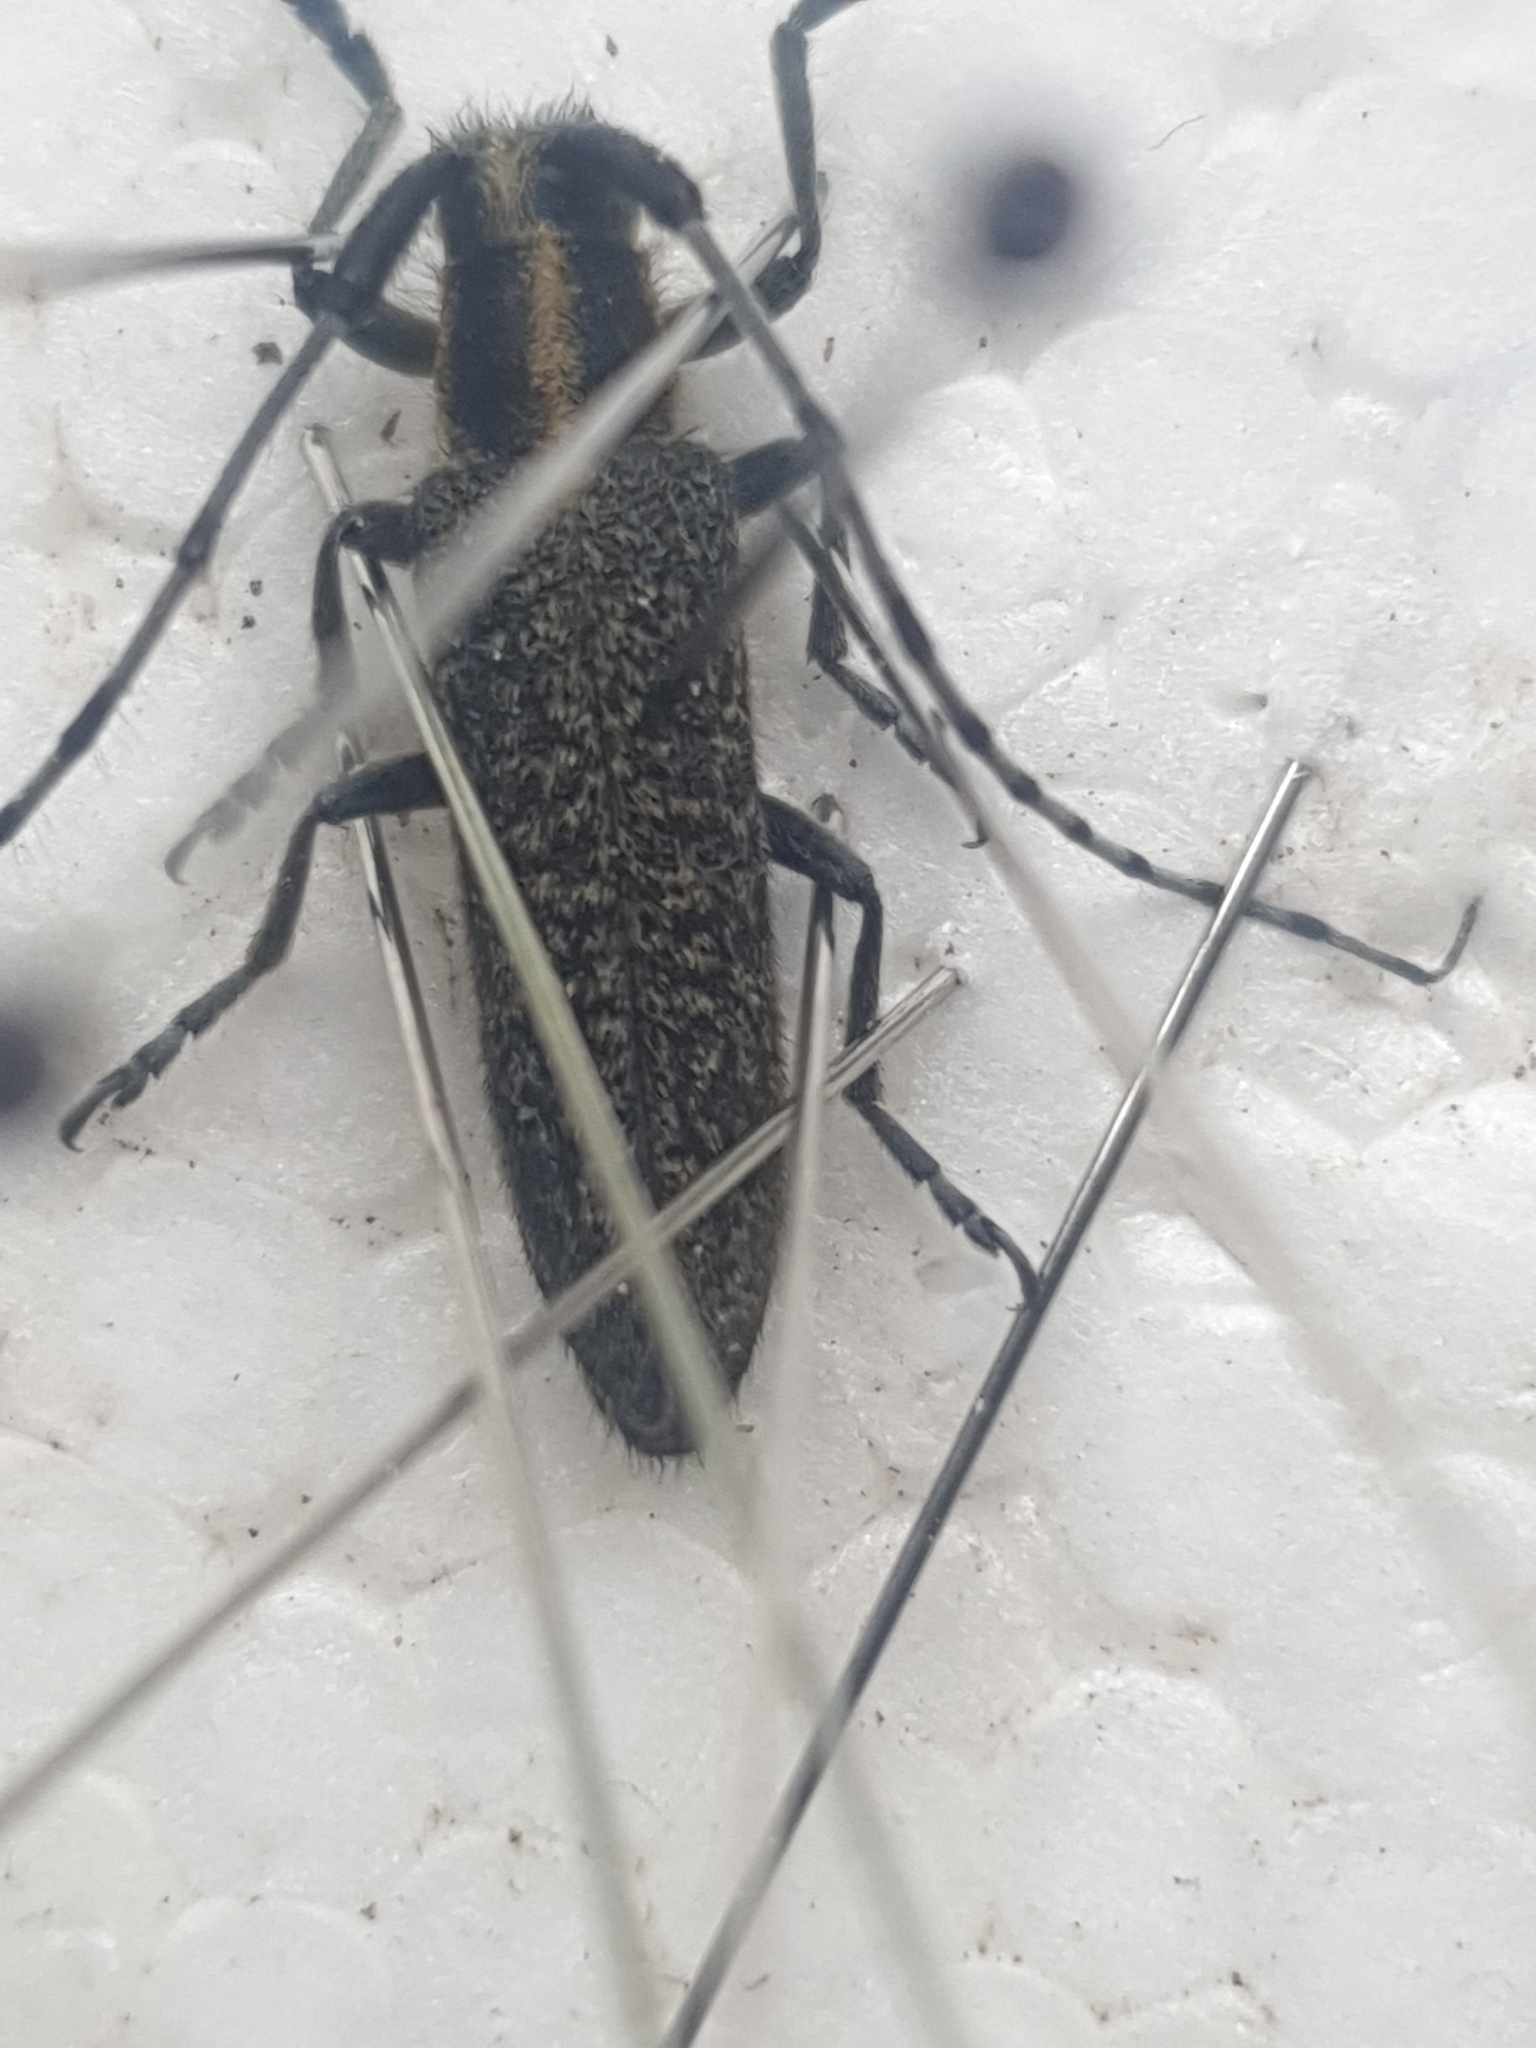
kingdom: Animalia
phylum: Arthropoda
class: Insecta
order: Coleoptera
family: Cerambycidae
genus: Agapanthia
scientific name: Agapanthia villosoviridescens
